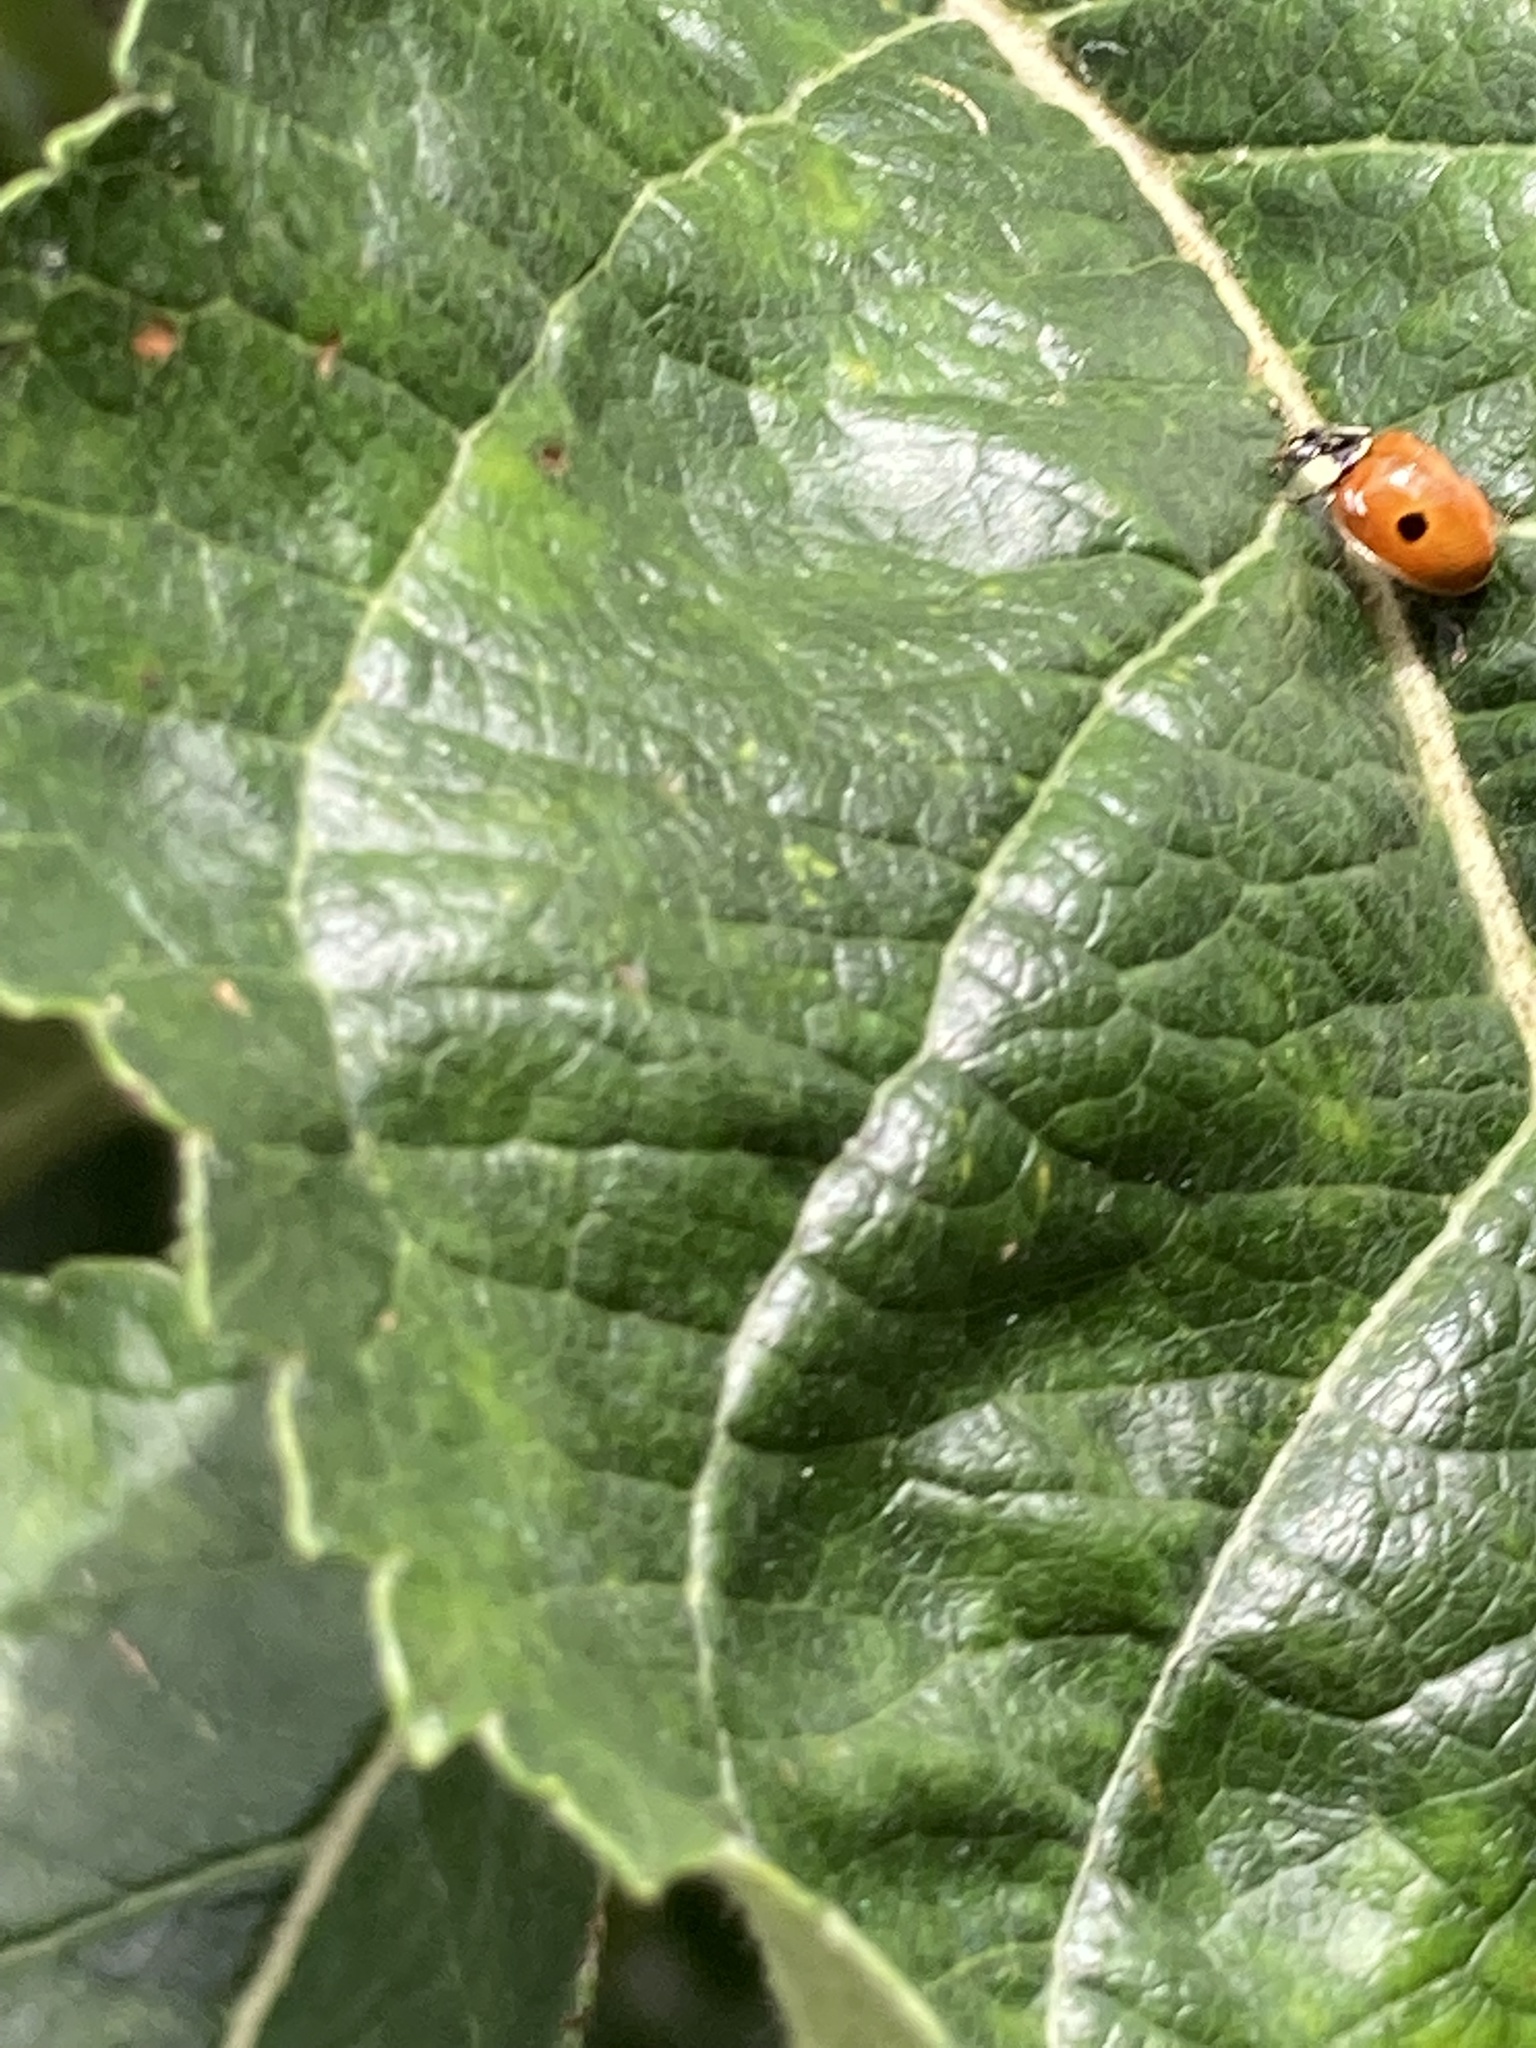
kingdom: Animalia
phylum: Arthropoda
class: Insecta
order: Coleoptera
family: Coccinellidae
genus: Adalia
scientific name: Adalia bipunctata
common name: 2-spot ladybird
